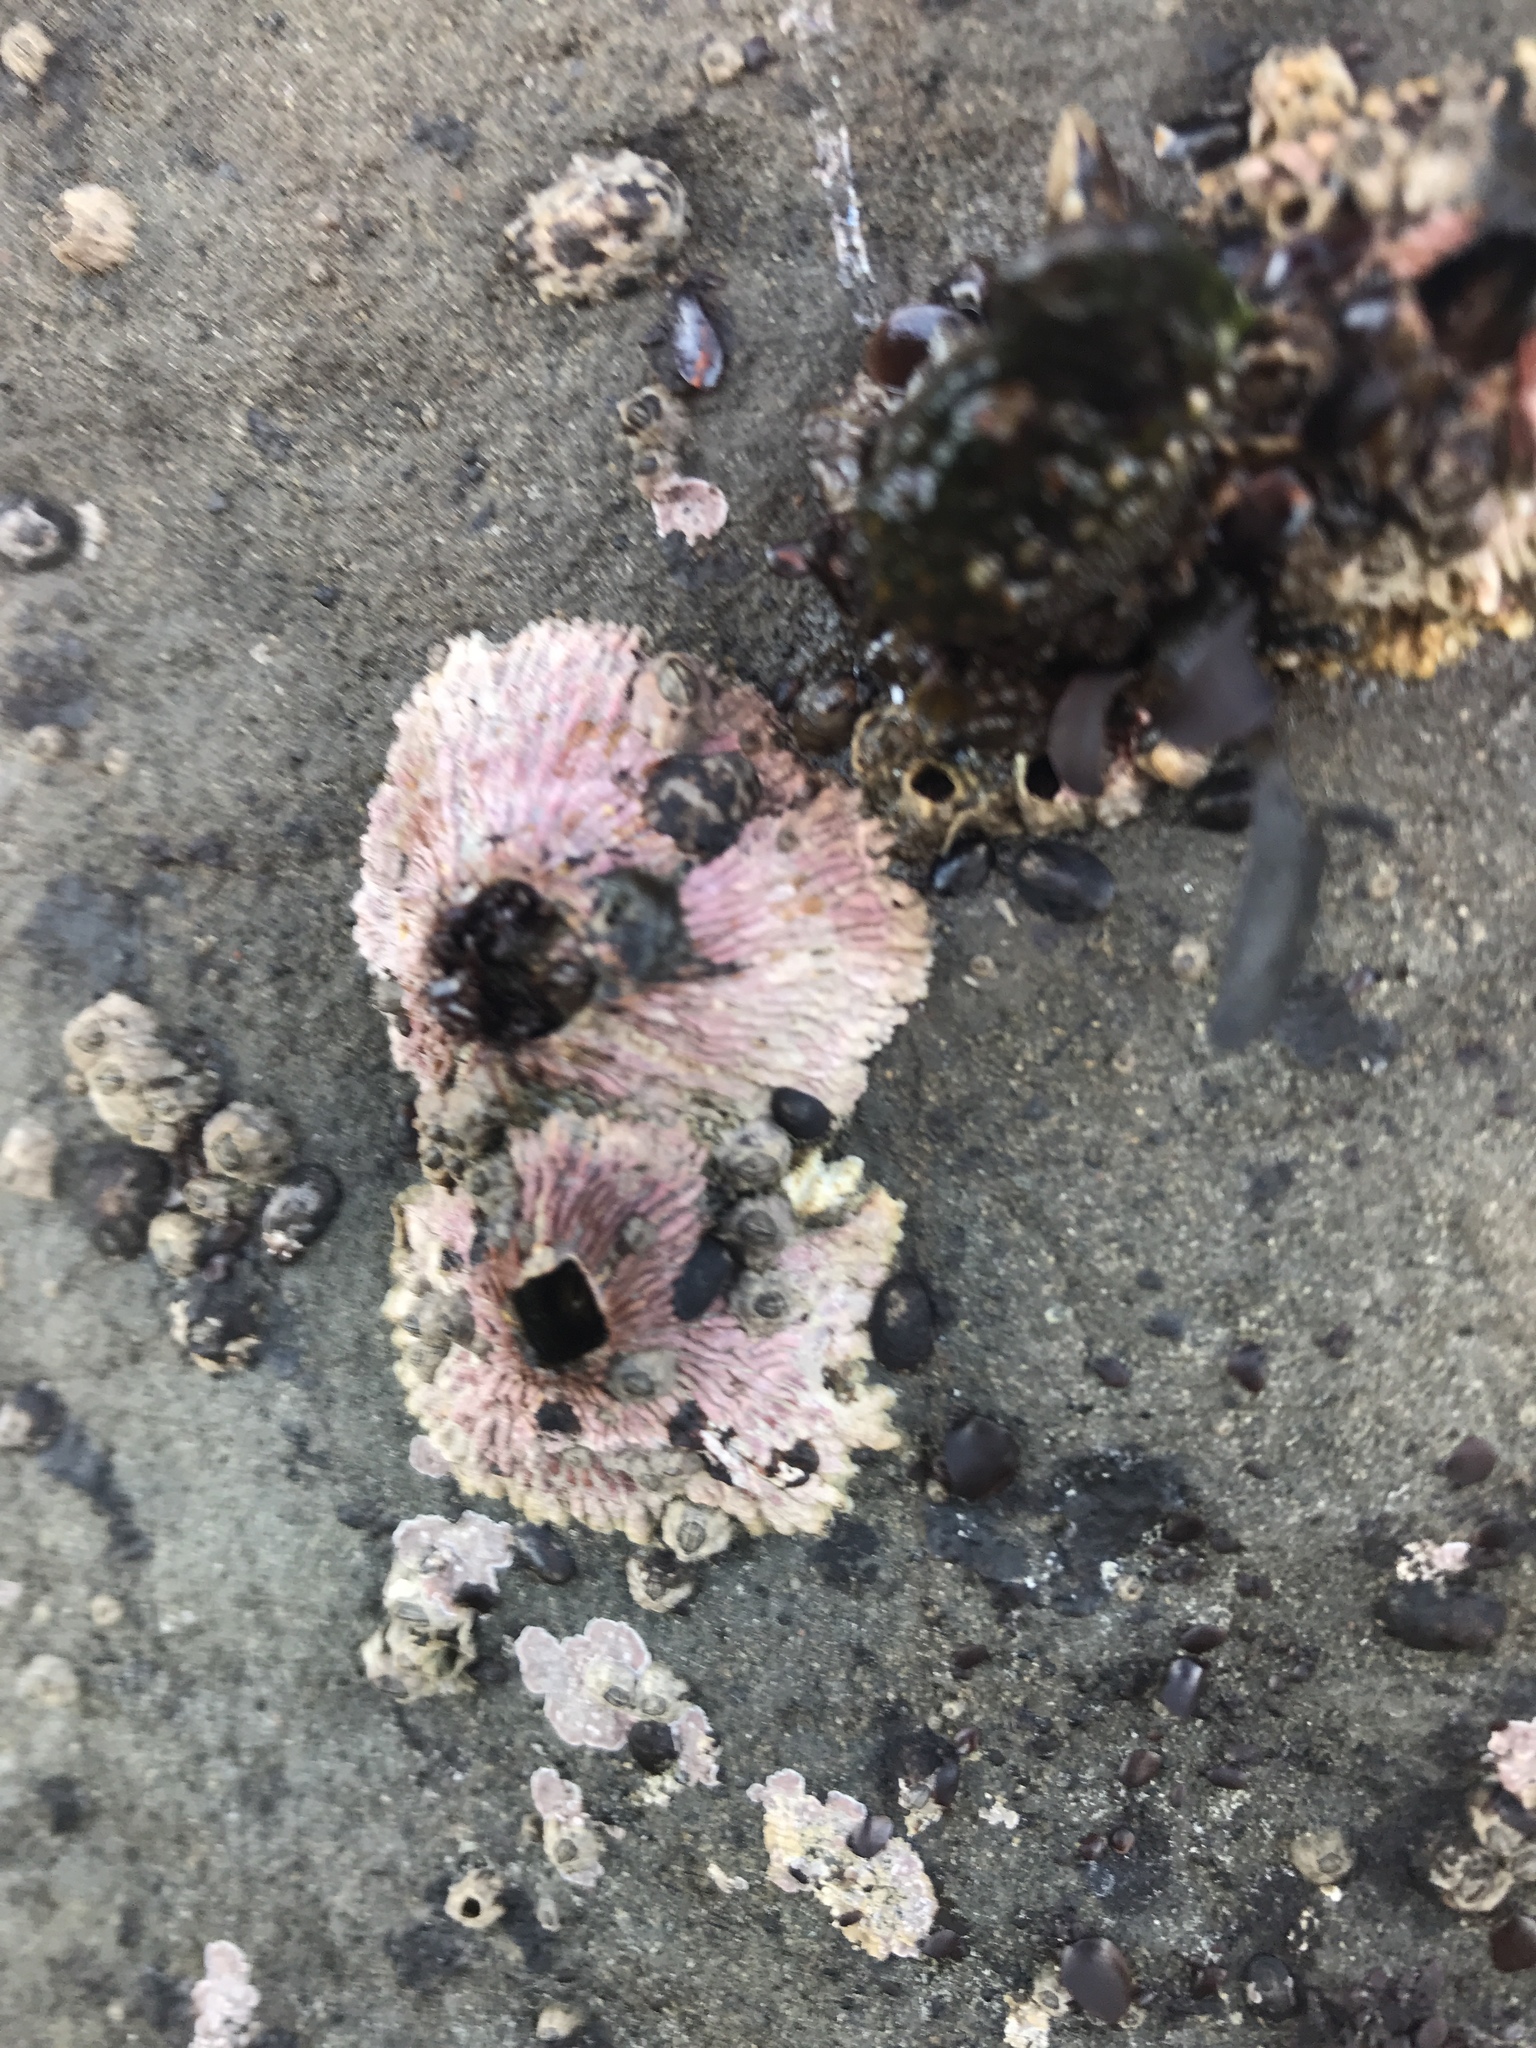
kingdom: Animalia
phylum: Arthropoda
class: Maxillopoda
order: Sessilia
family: Tetraclitidae
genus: Tetraclita
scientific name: Tetraclita rubescens
